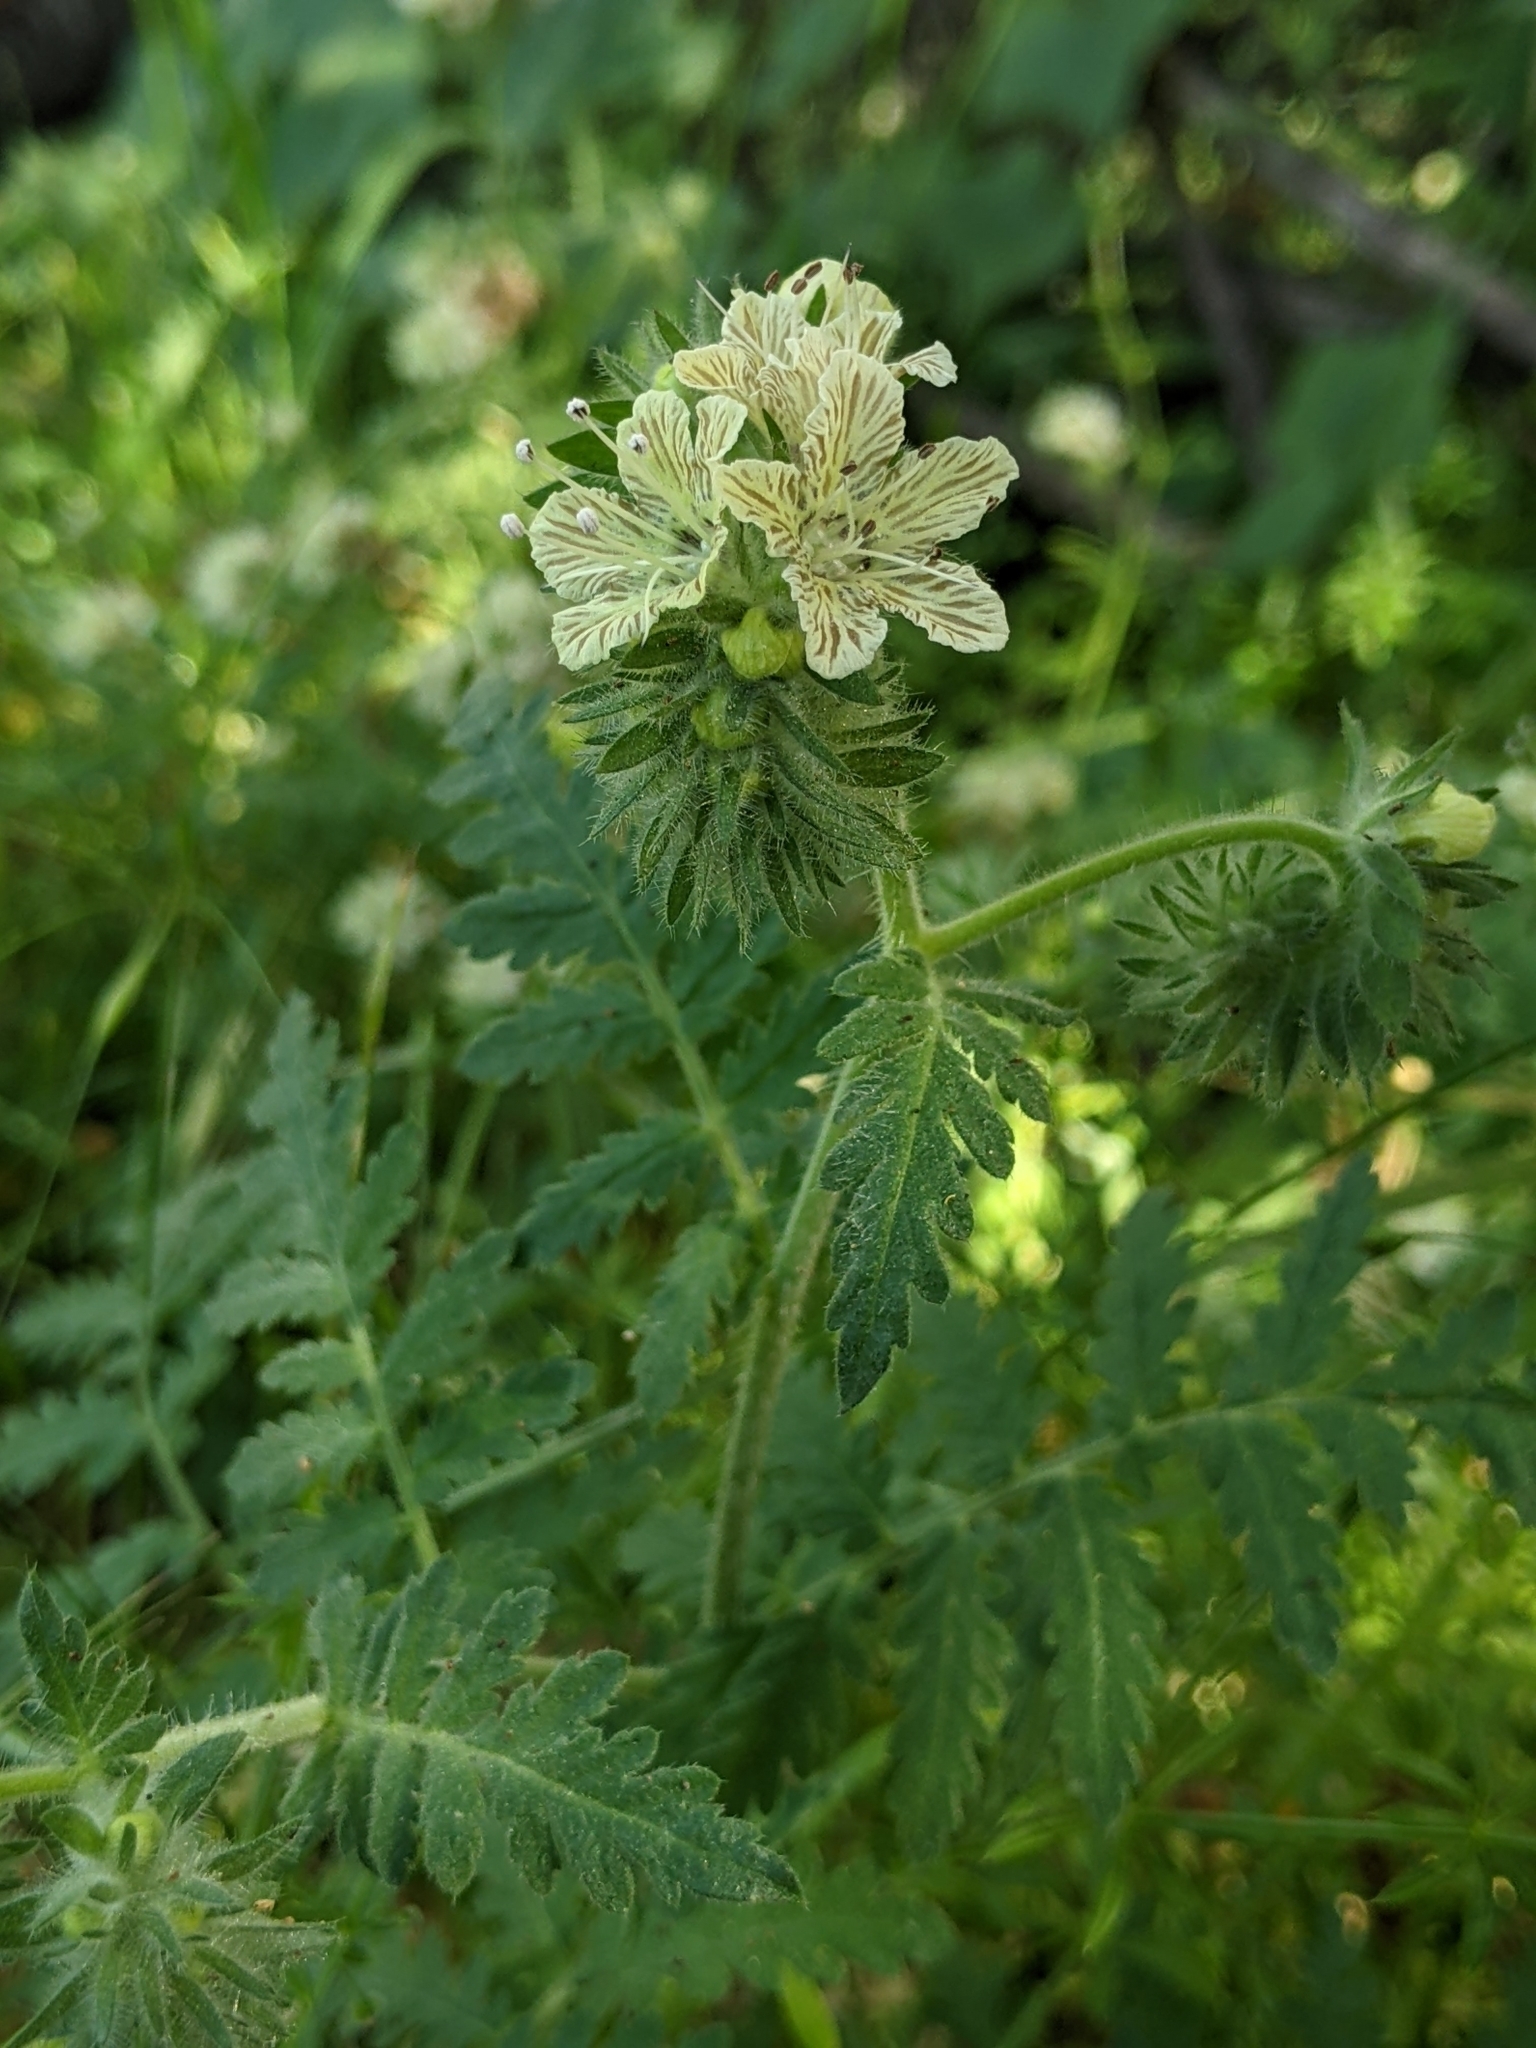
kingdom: Plantae
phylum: Tracheophyta
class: Magnoliopsida
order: Boraginales
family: Hydrophyllaceae
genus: Phacelia
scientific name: Phacelia distans
